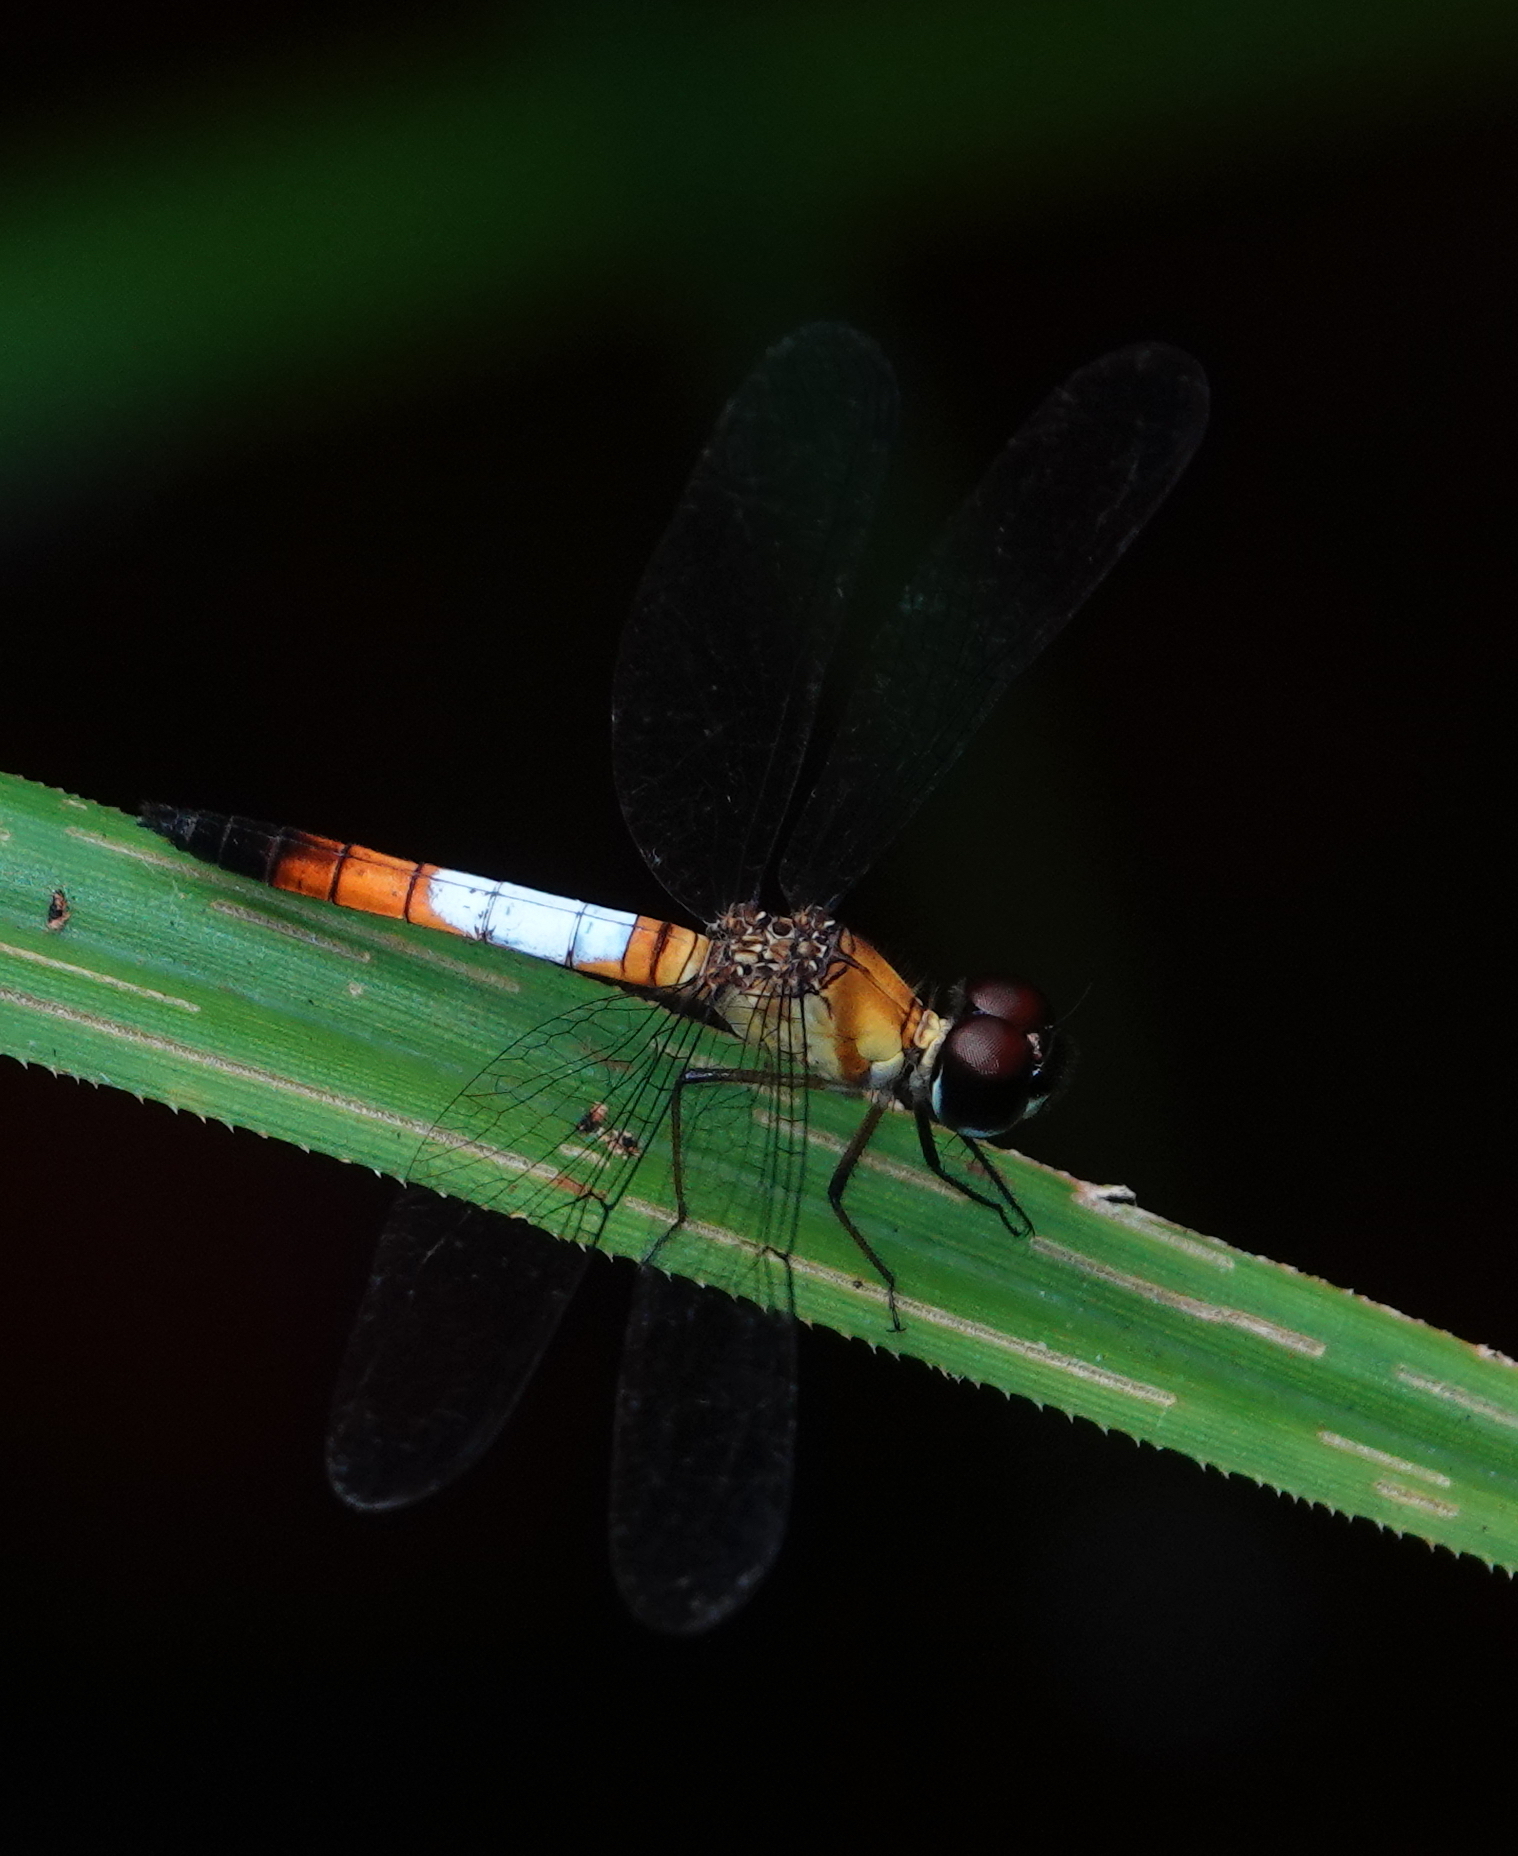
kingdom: Animalia
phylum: Arthropoda
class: Insecta
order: Odonata
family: Libellulidae
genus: Brachygonia
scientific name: Brachygonia oculata
